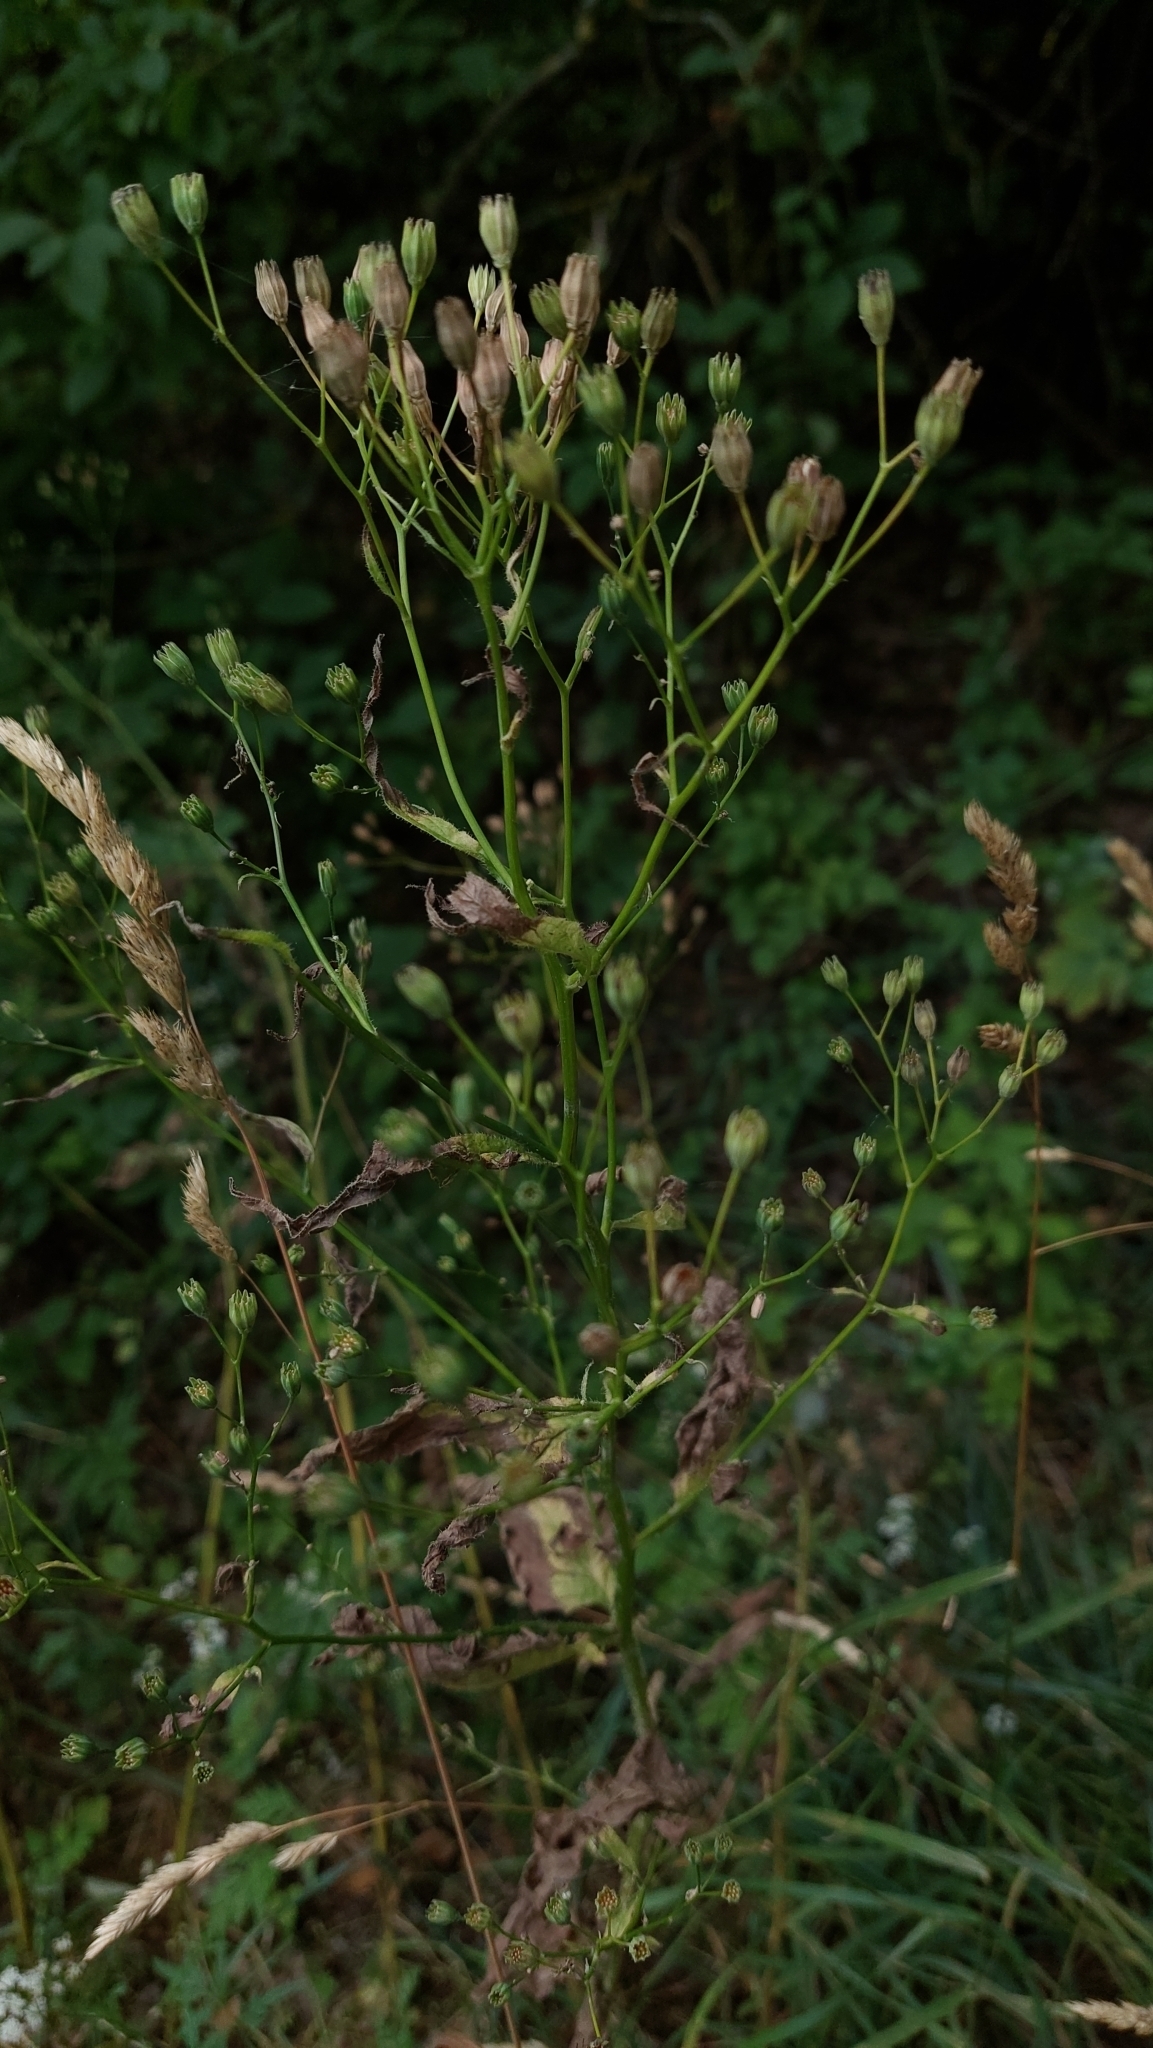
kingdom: Plantae
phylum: Tracheophyta
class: Magnoliopsida
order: Asterales
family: Asteraceae
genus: Erigeron
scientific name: Erigeron canadensis
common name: Canadian fleabane
